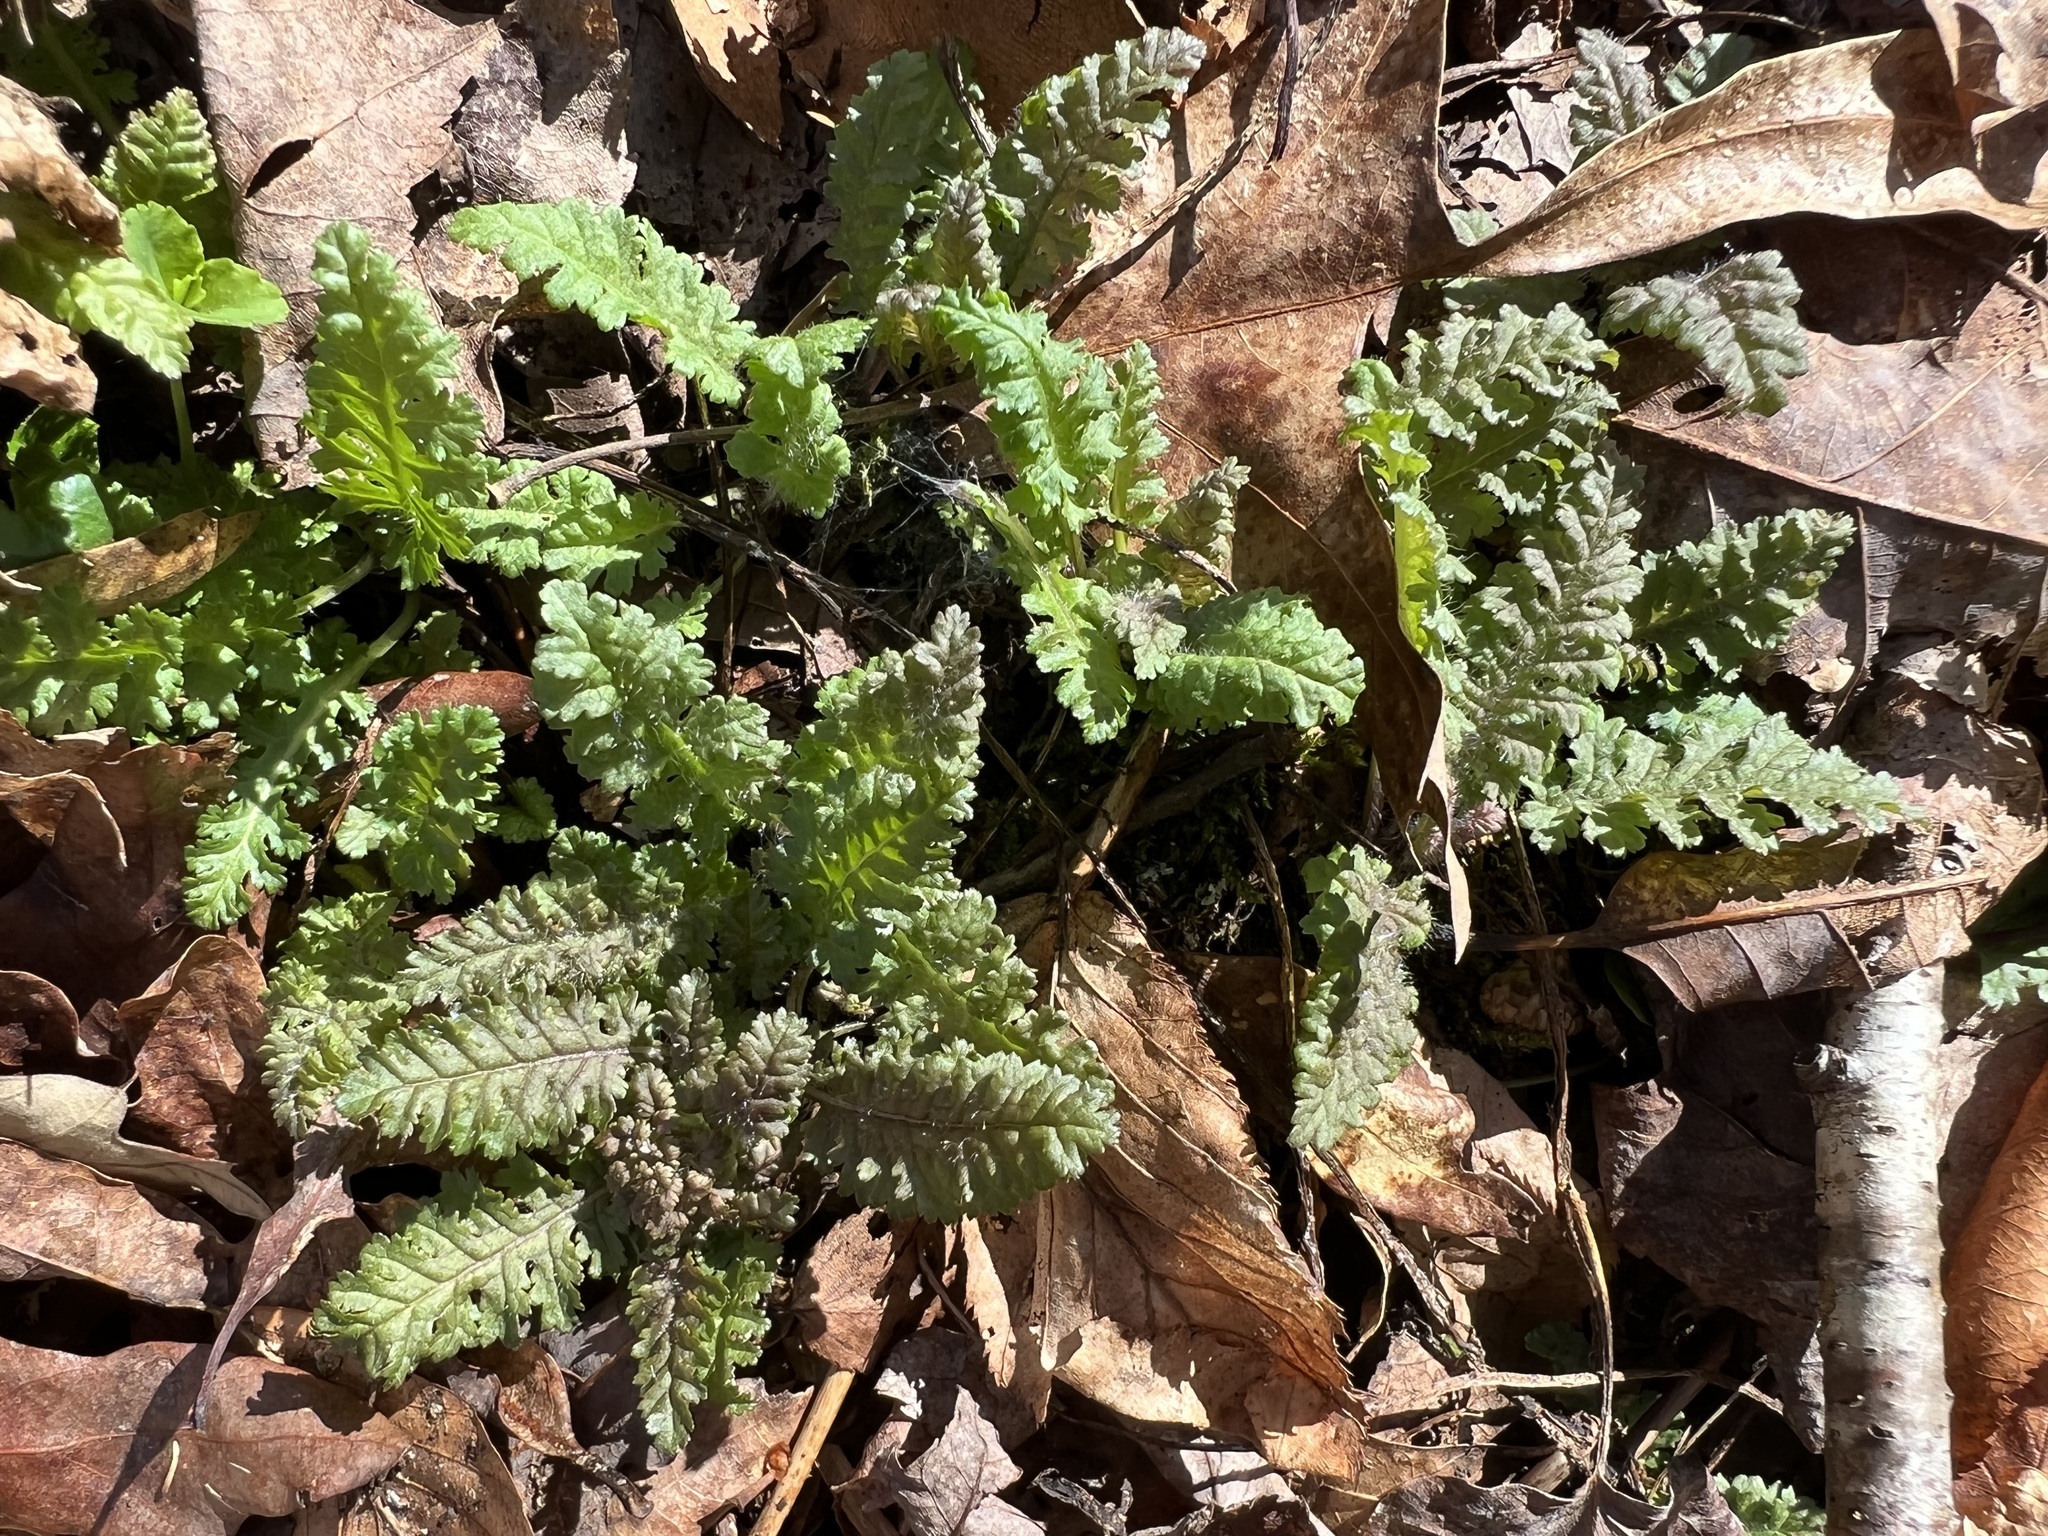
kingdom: Plantae
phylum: Tracheophyta
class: Magnoliopsida
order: Lamiales
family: Orobanchaceae
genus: Pedicularis
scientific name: Pedicularis canadensis
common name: Early lousewort
